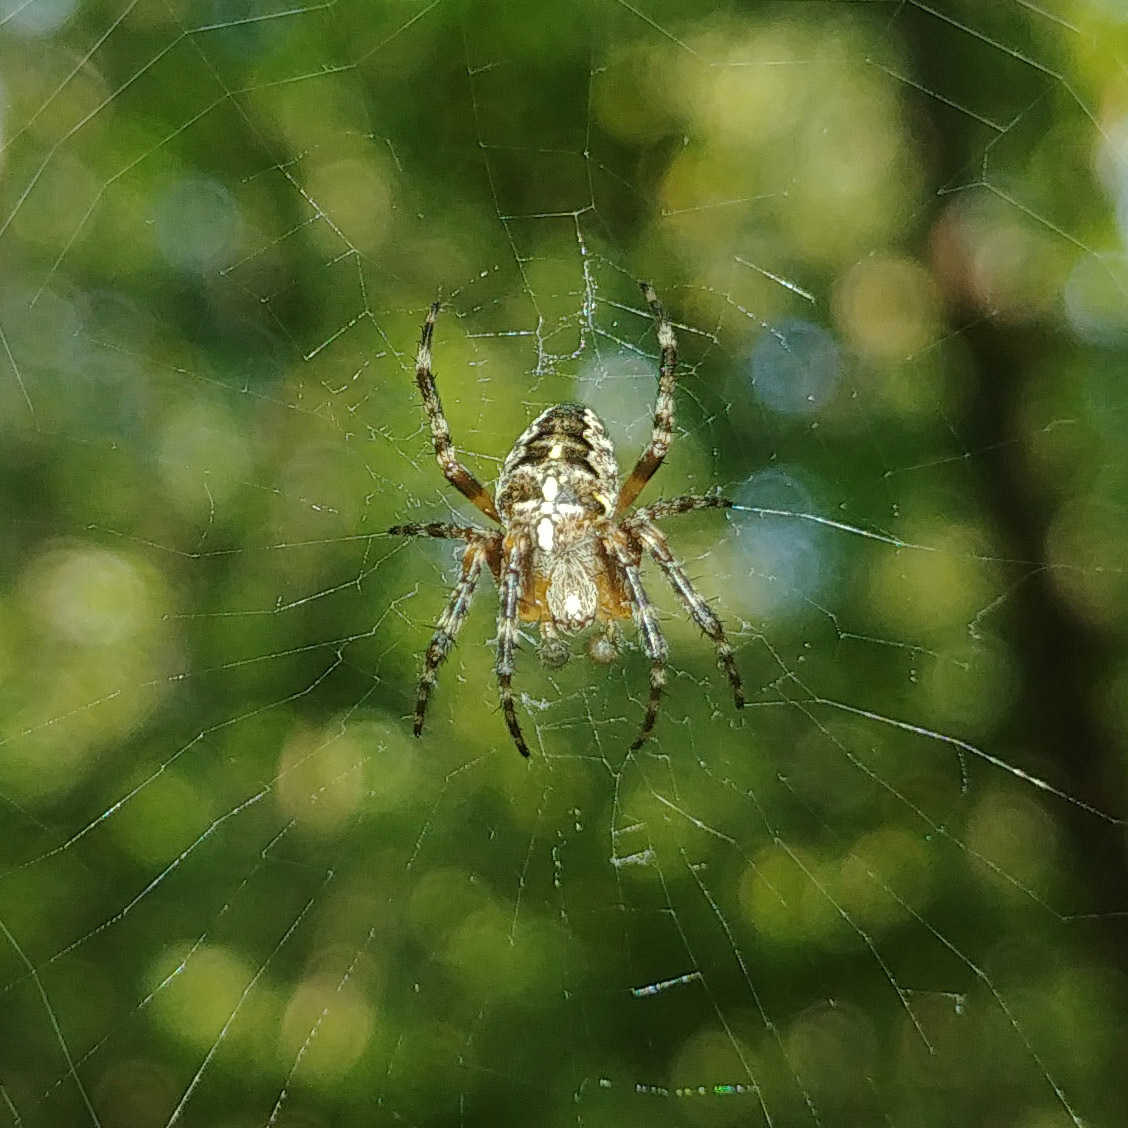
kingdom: Animalia
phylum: Arthropoda
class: Arachnida
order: Araneae
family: Araneidae
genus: Araneus
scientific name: Araneus diadematus
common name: Cross orbweaver
